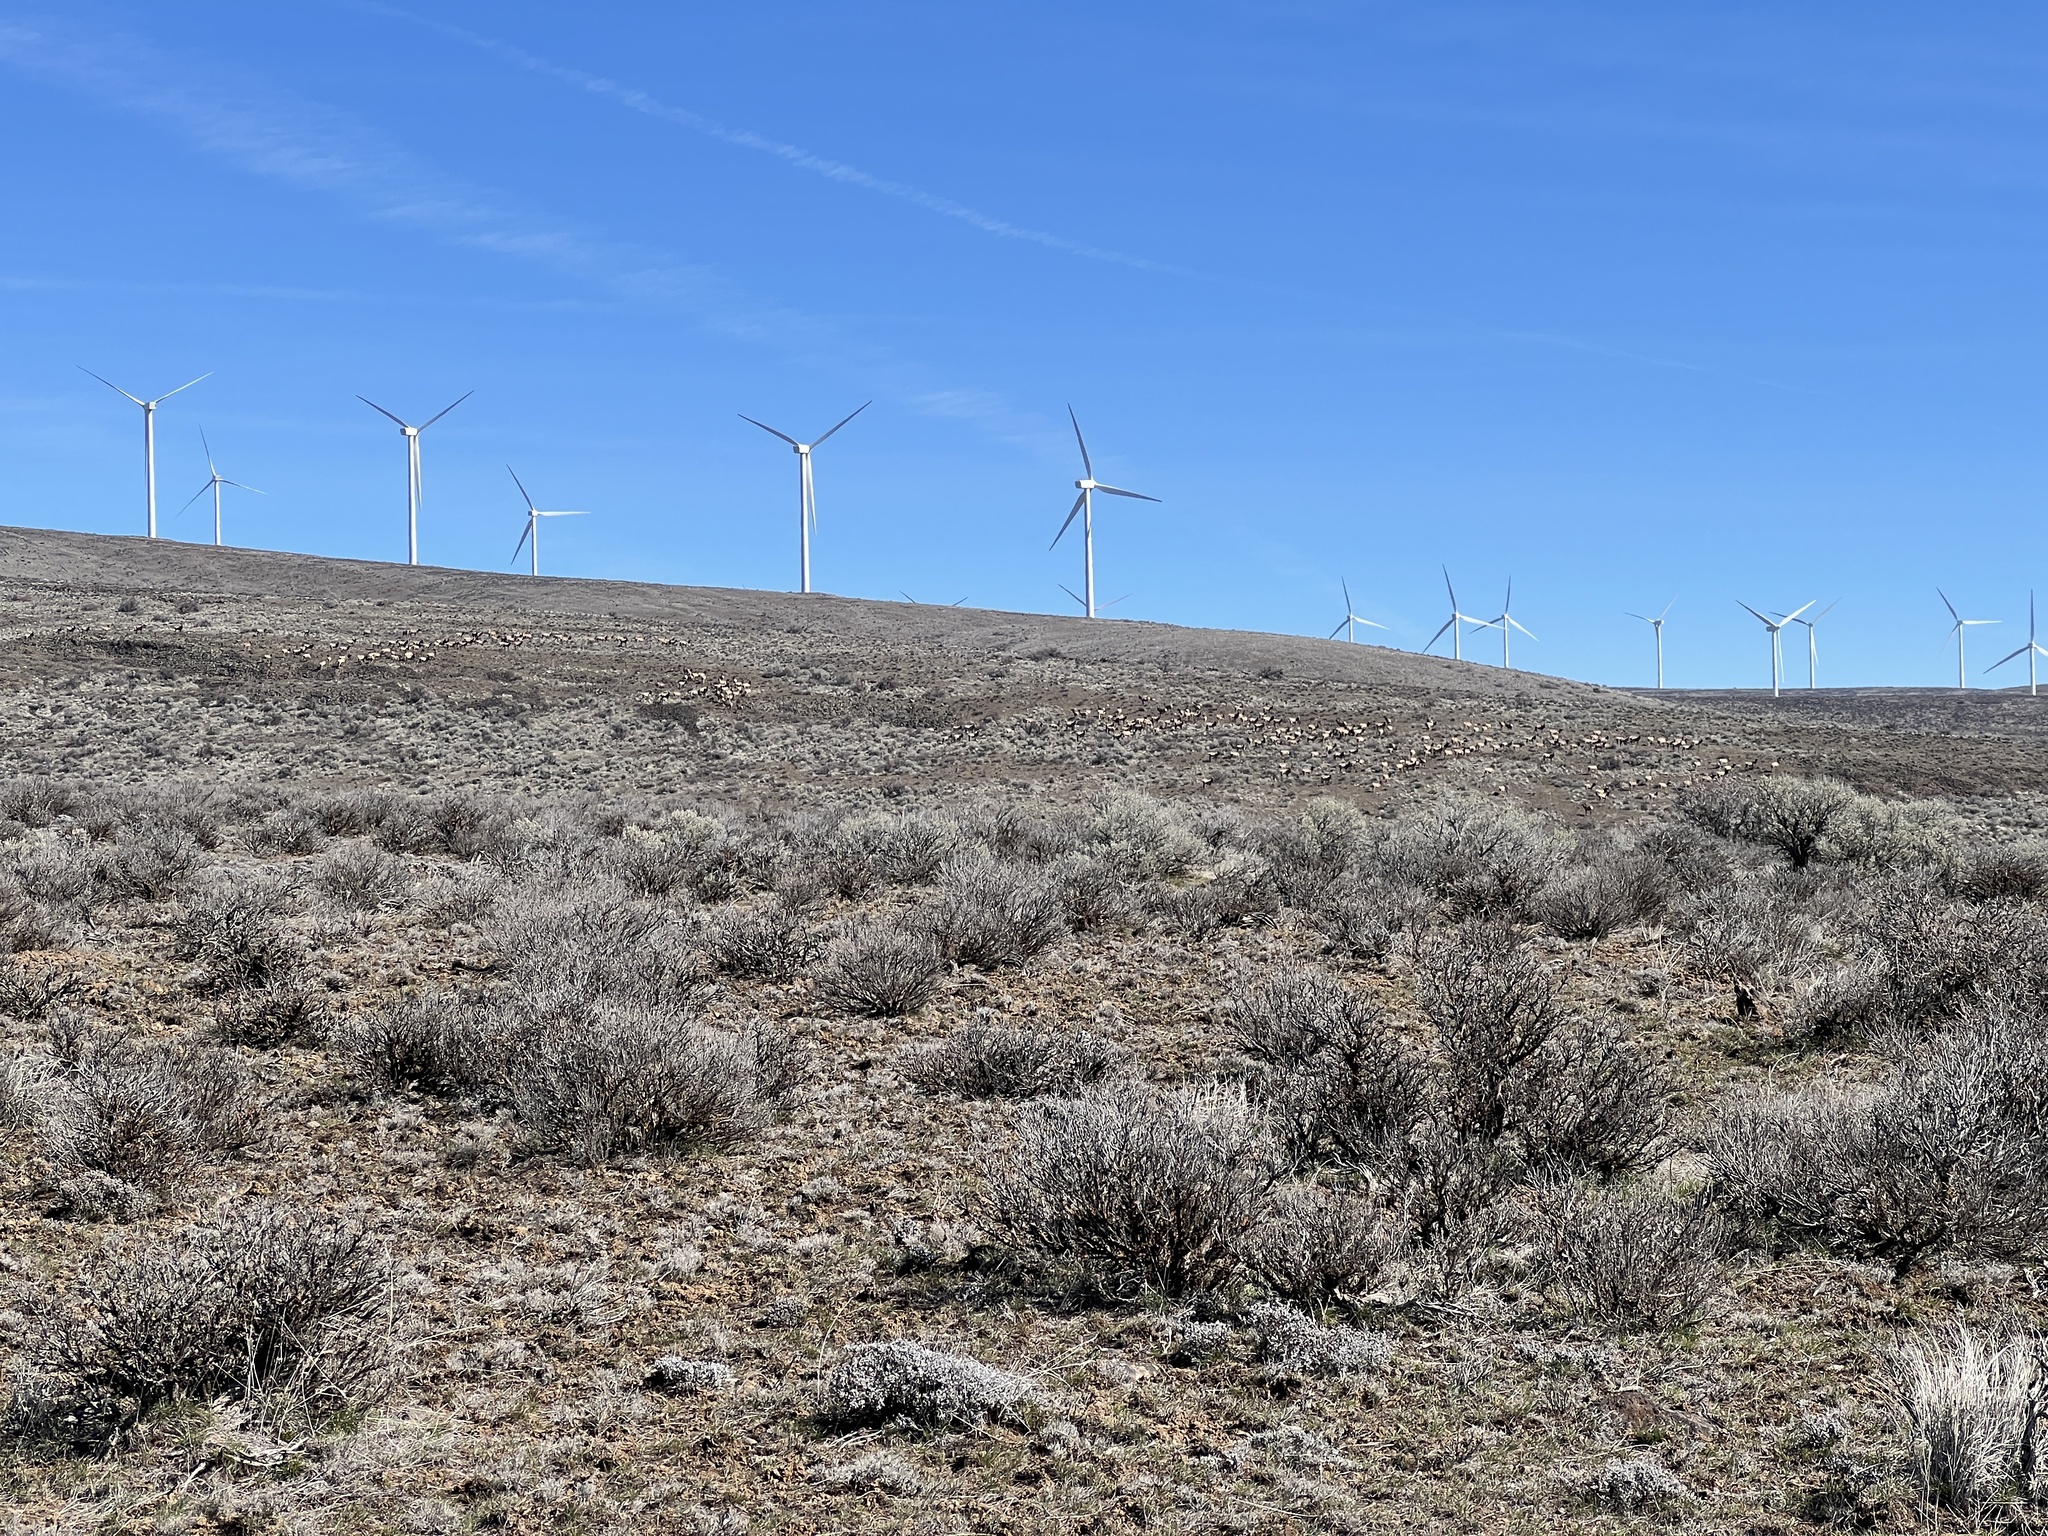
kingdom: Animalia
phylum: Chordata
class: Mammalia
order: Artiodactyla
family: Cervidae
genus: Cervus
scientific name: Cervus elaphus
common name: Red deer
